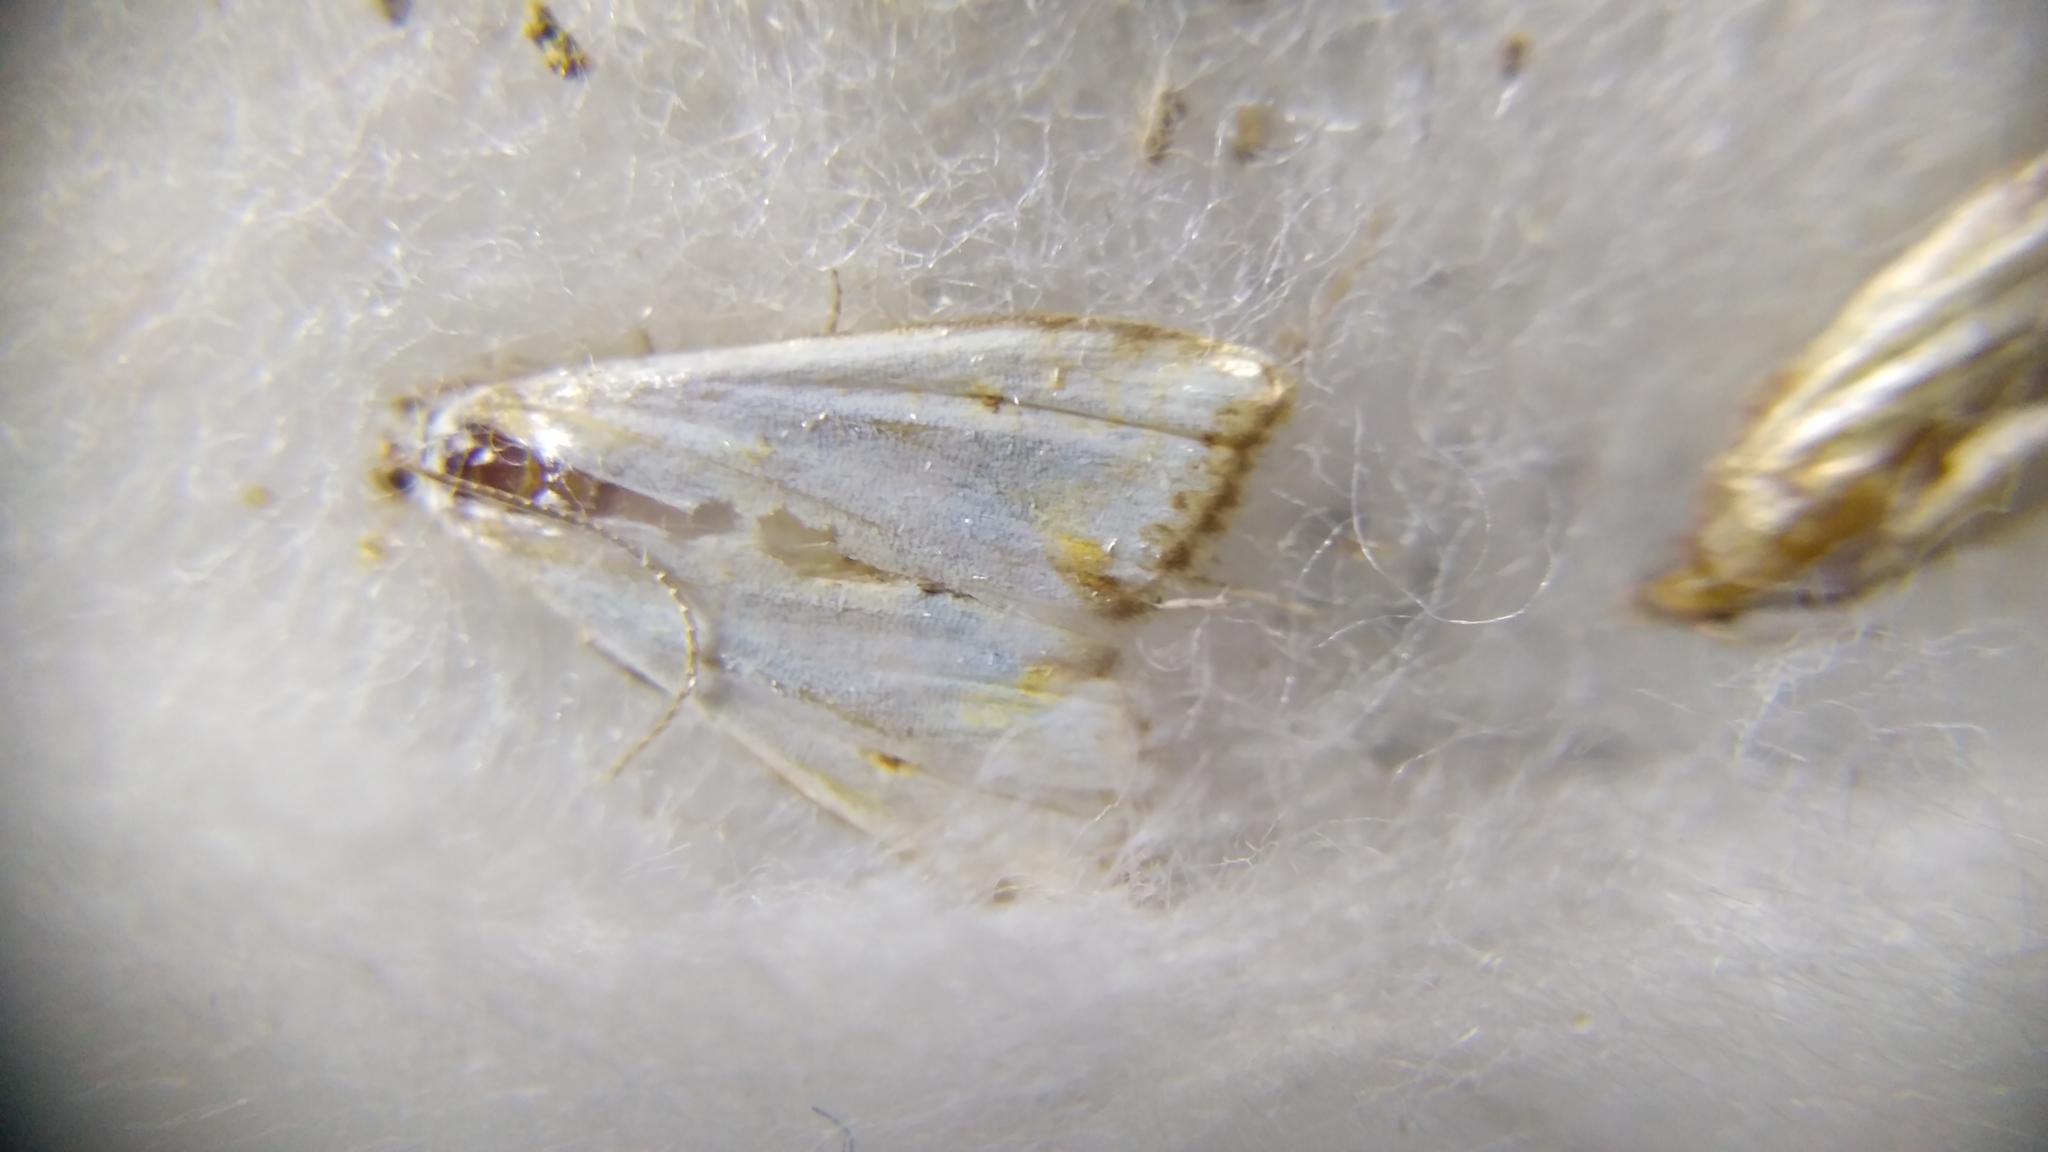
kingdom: Animalia
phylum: Arthropoda
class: Insecta
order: Lepidoptera
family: Crambidae
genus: Cataclysta
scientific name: Cataclysta lemnata
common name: Small china-mark
